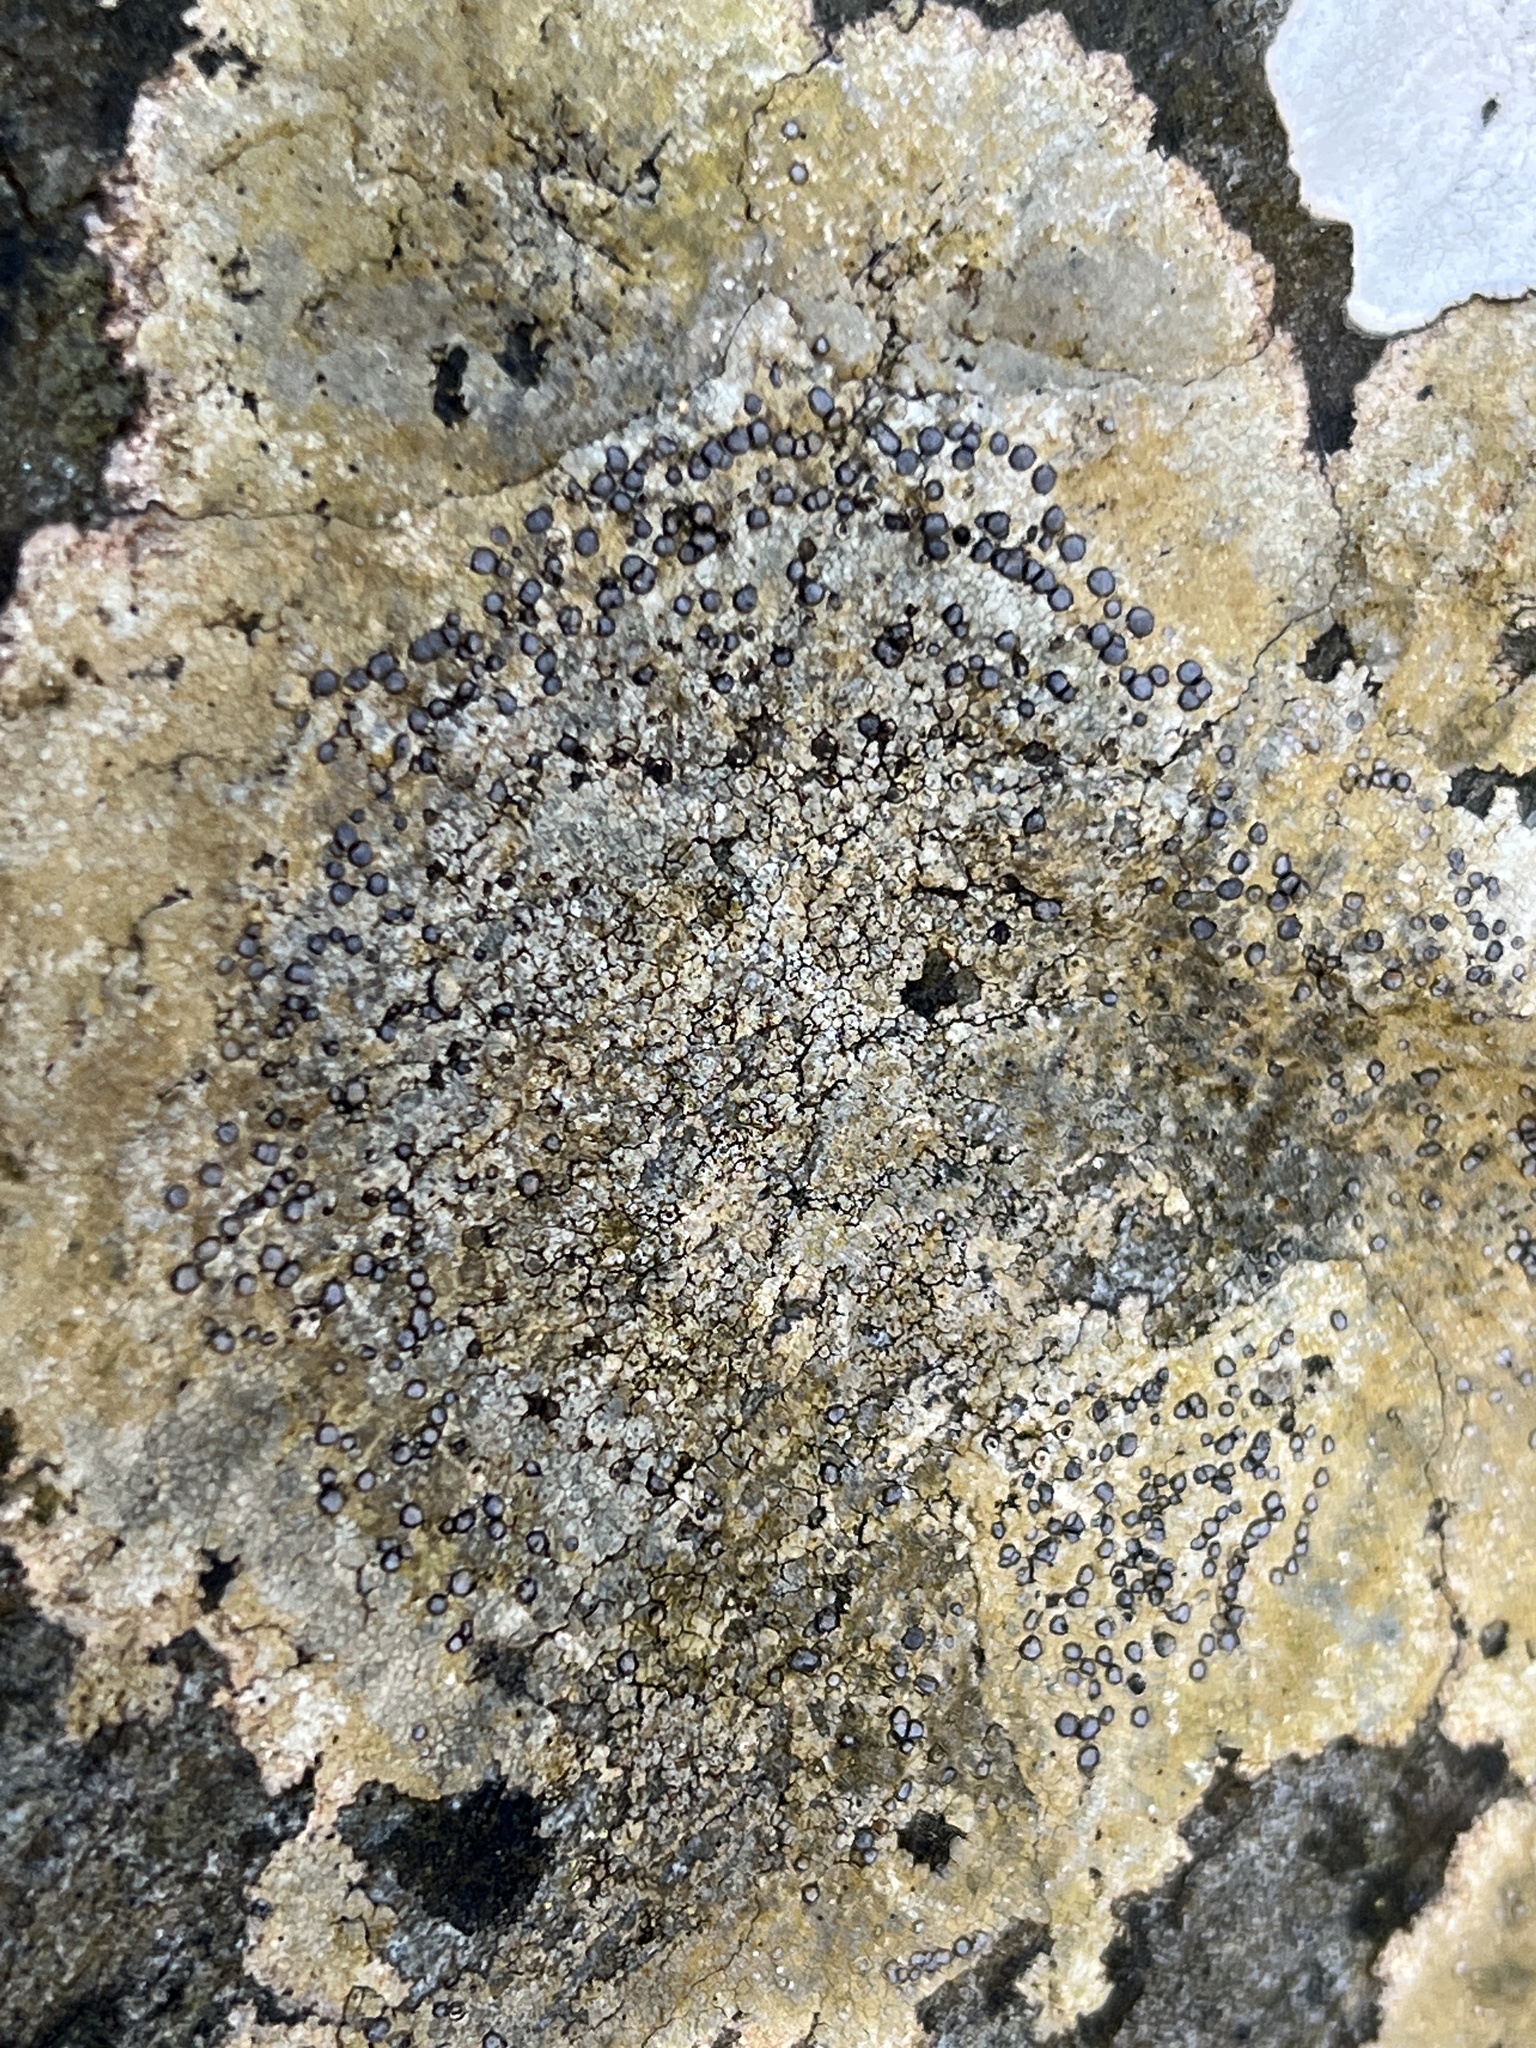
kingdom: Fungi
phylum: Ascomycota
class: Lecanoromycetes
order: Lecideales
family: Lecideaceae
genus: Porpidia
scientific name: Porpidia albocaerulescens
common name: Smokey-eyed boulder lichen
